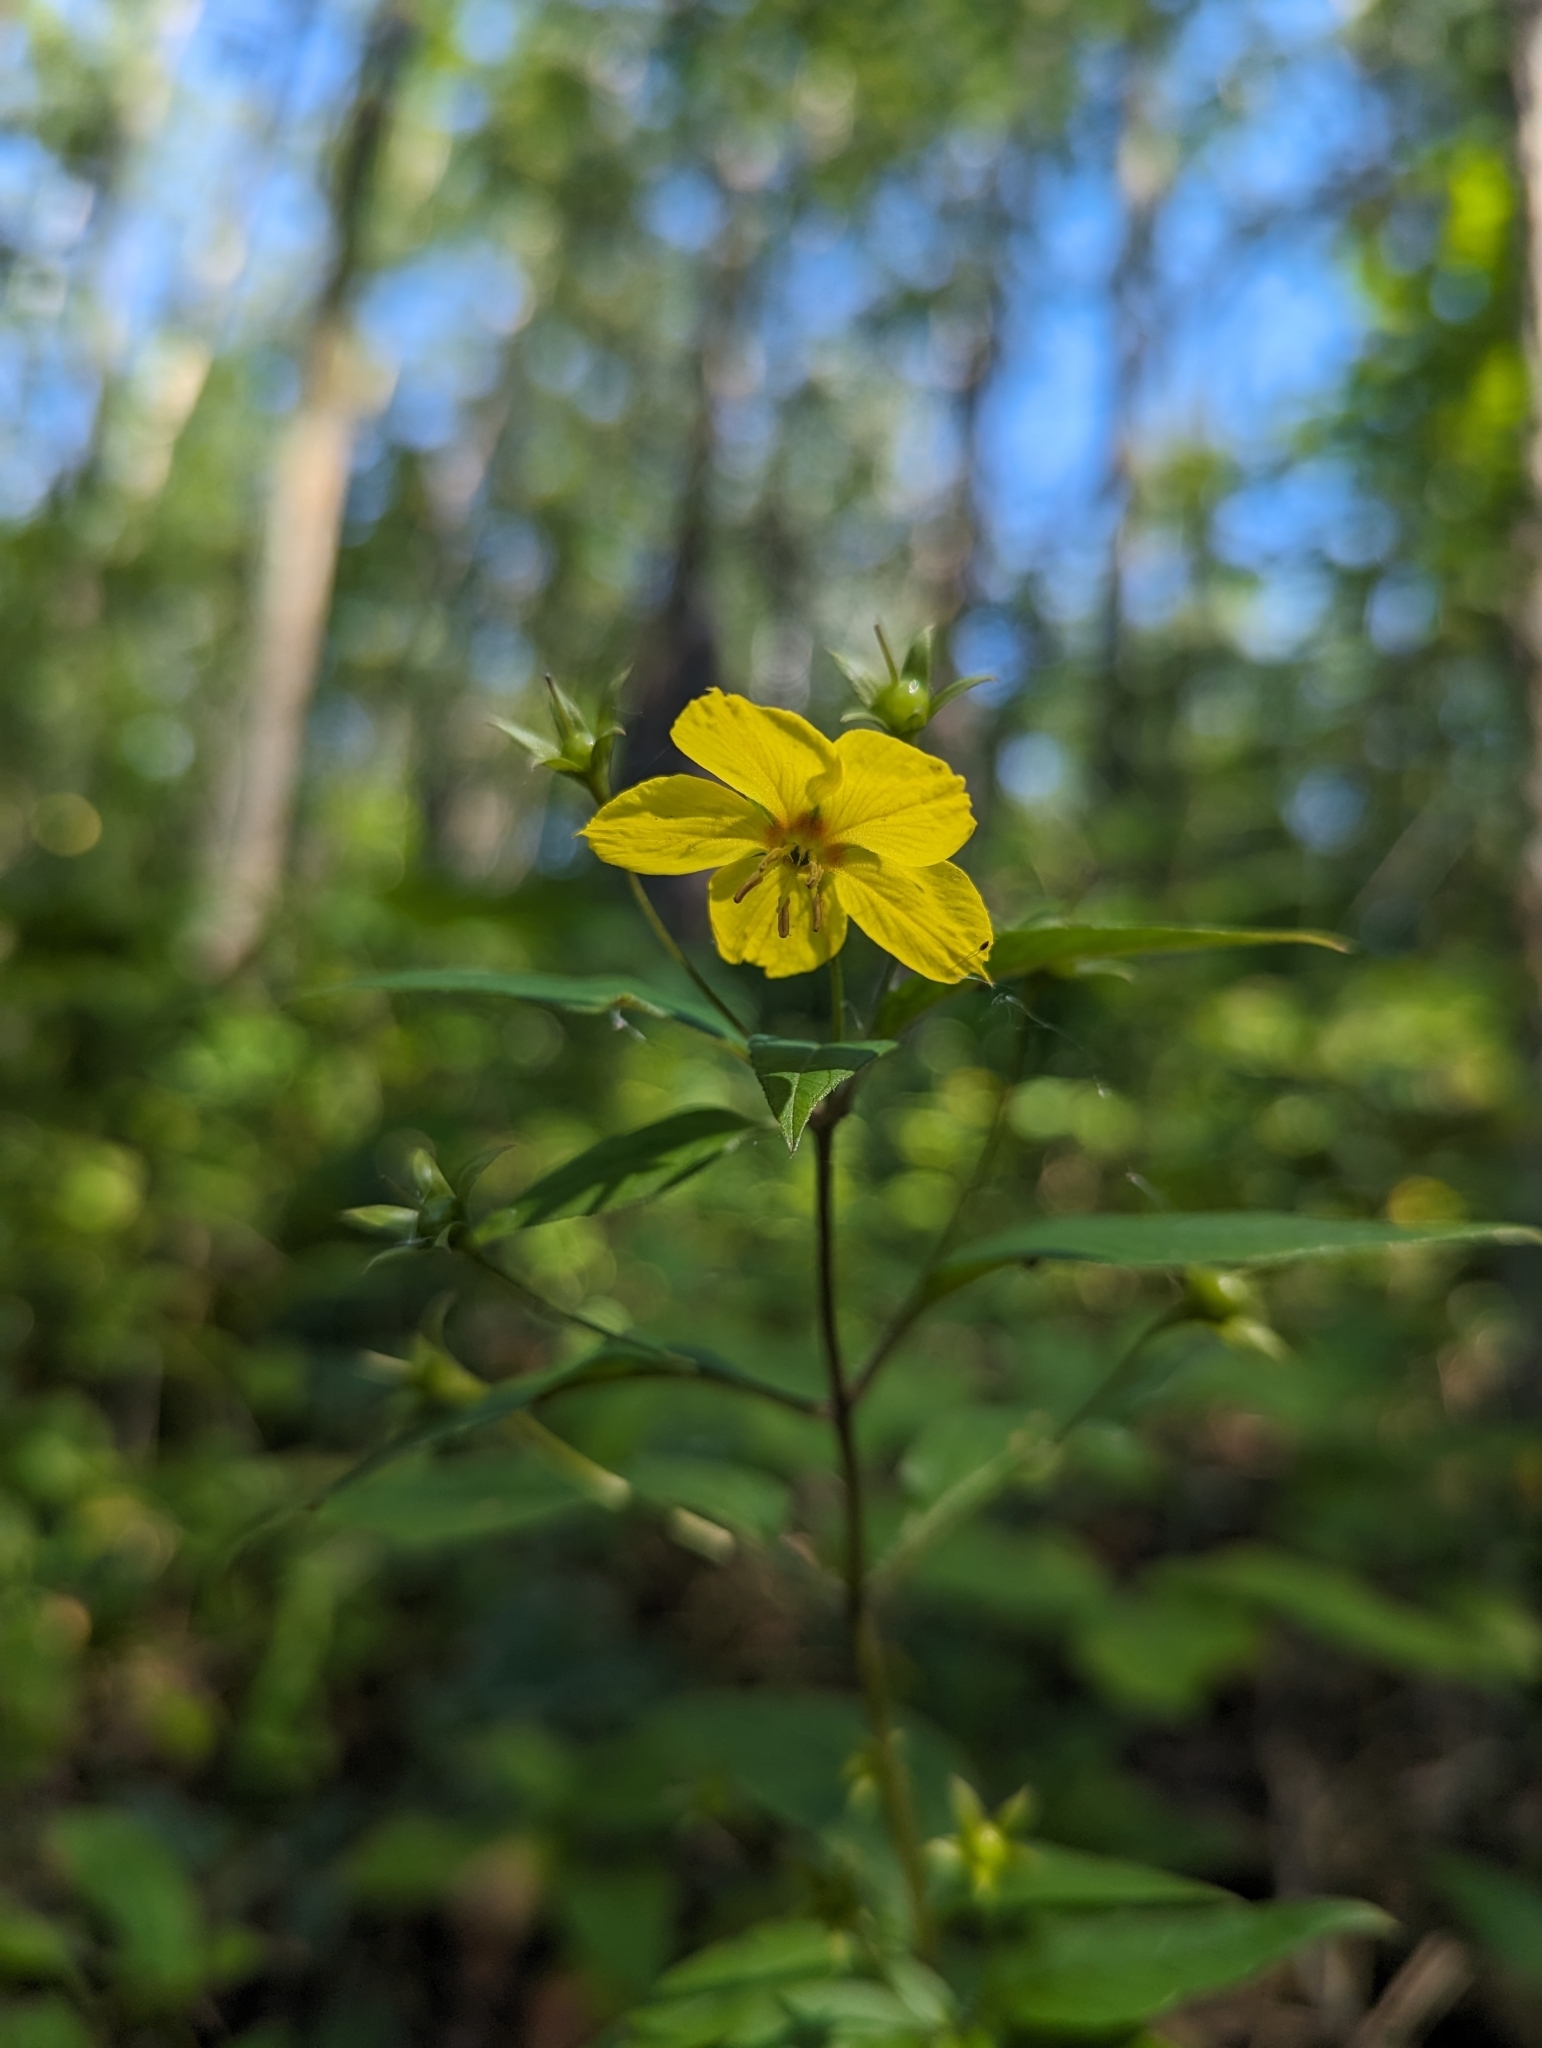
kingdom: Plantae
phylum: Tracheophyta
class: Magnoliopsida
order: Ericales
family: Primulaceae
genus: Lysimachia
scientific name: Lysimachia ciliata
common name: Fringed loosestrife
